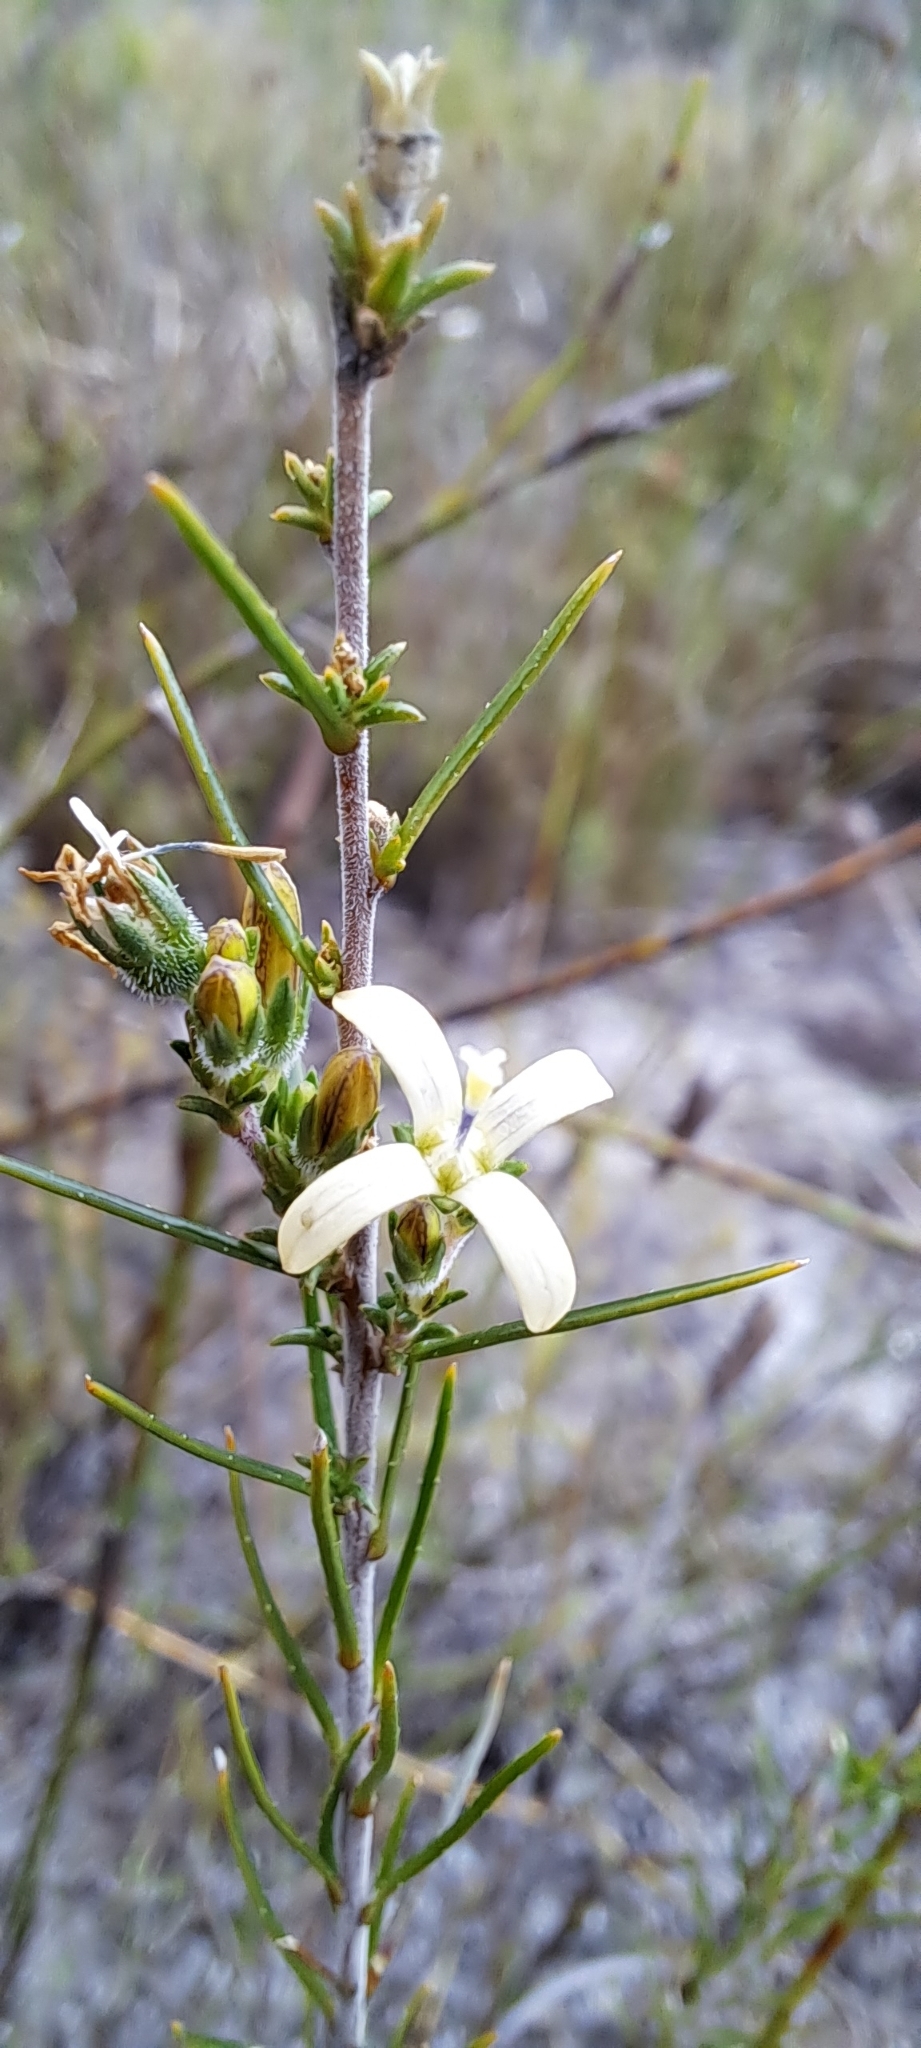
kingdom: Plantae
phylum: Tracheophyta
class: Magnoliopsida
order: Asterales
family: Campanulaceae
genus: Wahlenbergia
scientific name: Wahlenbergia longifolia
